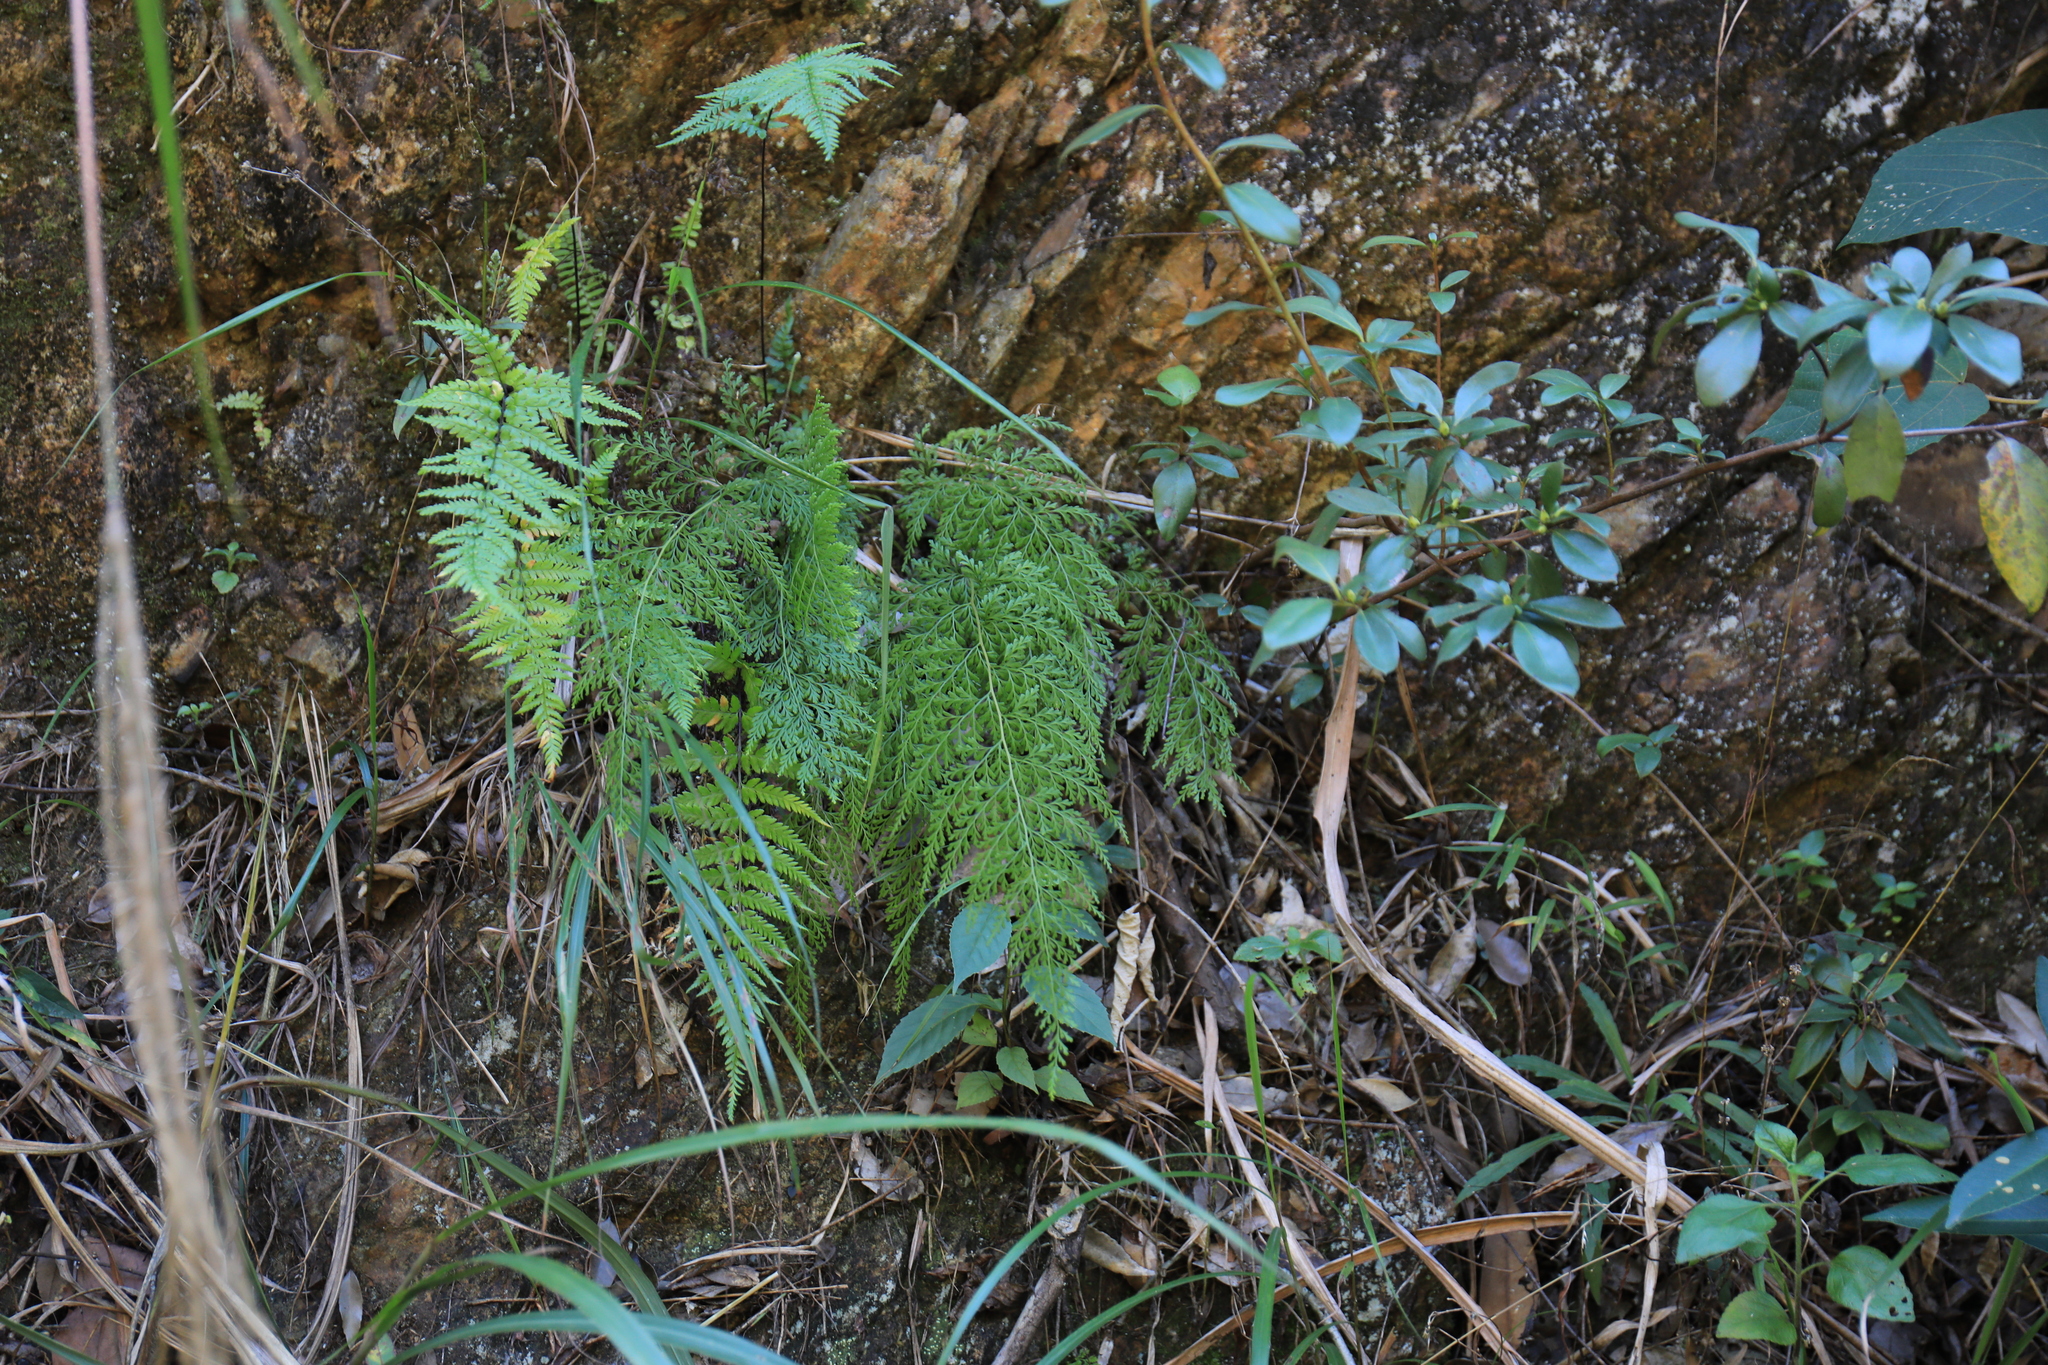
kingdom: Plantae
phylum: Tracheophyta
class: Polypodiopsida
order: Polypodiales
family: Lindsaeaceae
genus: Odontosoria
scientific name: Odontosoria chinensis
